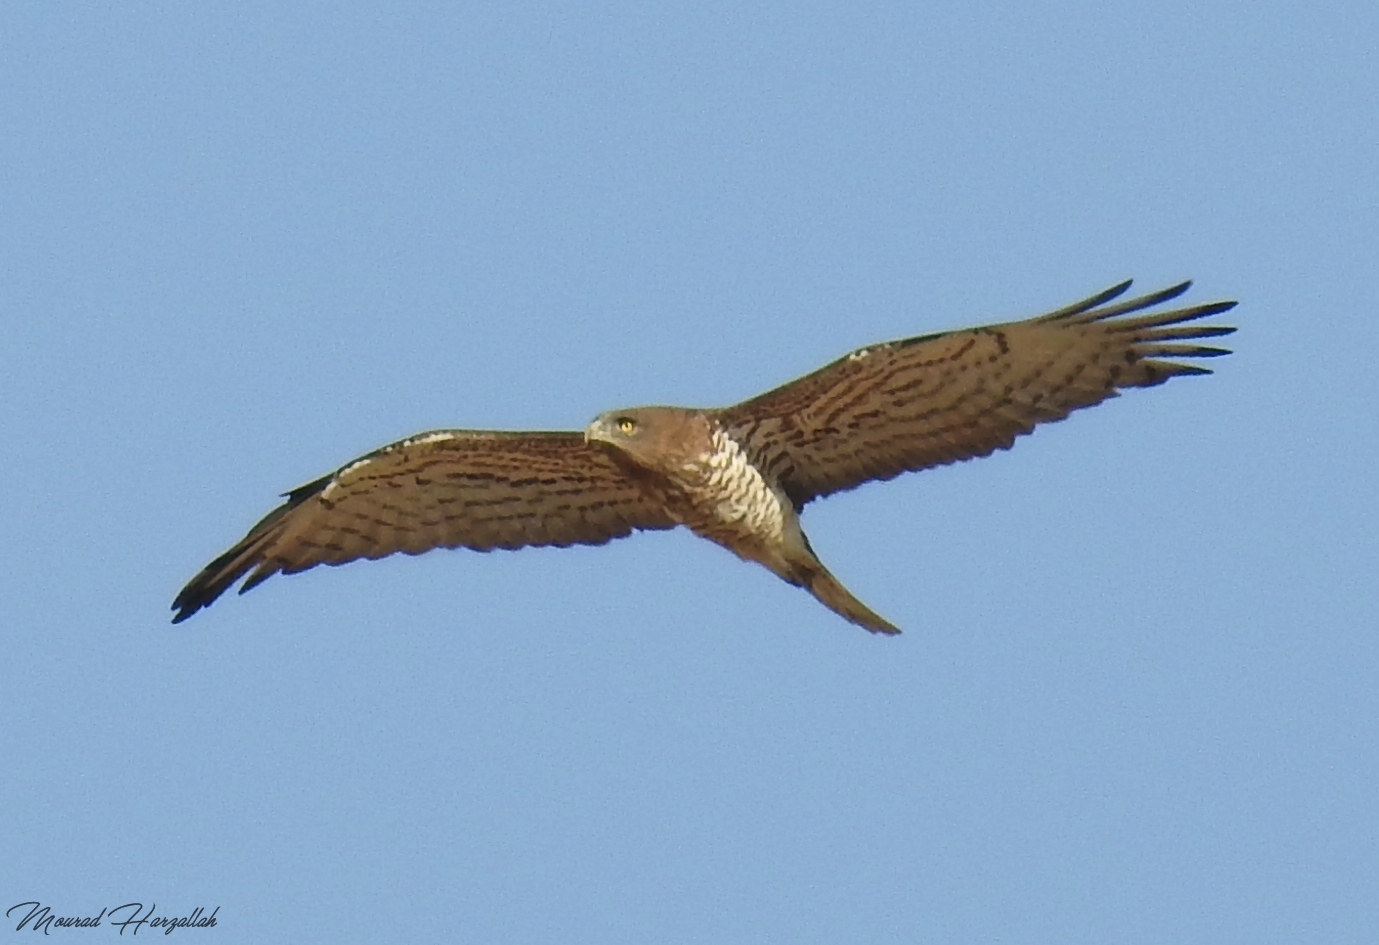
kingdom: Animalia
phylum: Chordata
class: Aves
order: Accipitriformes
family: Accipitridae
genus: Circaetus
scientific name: Circaetus gallicus
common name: Short-toed snake eagle
